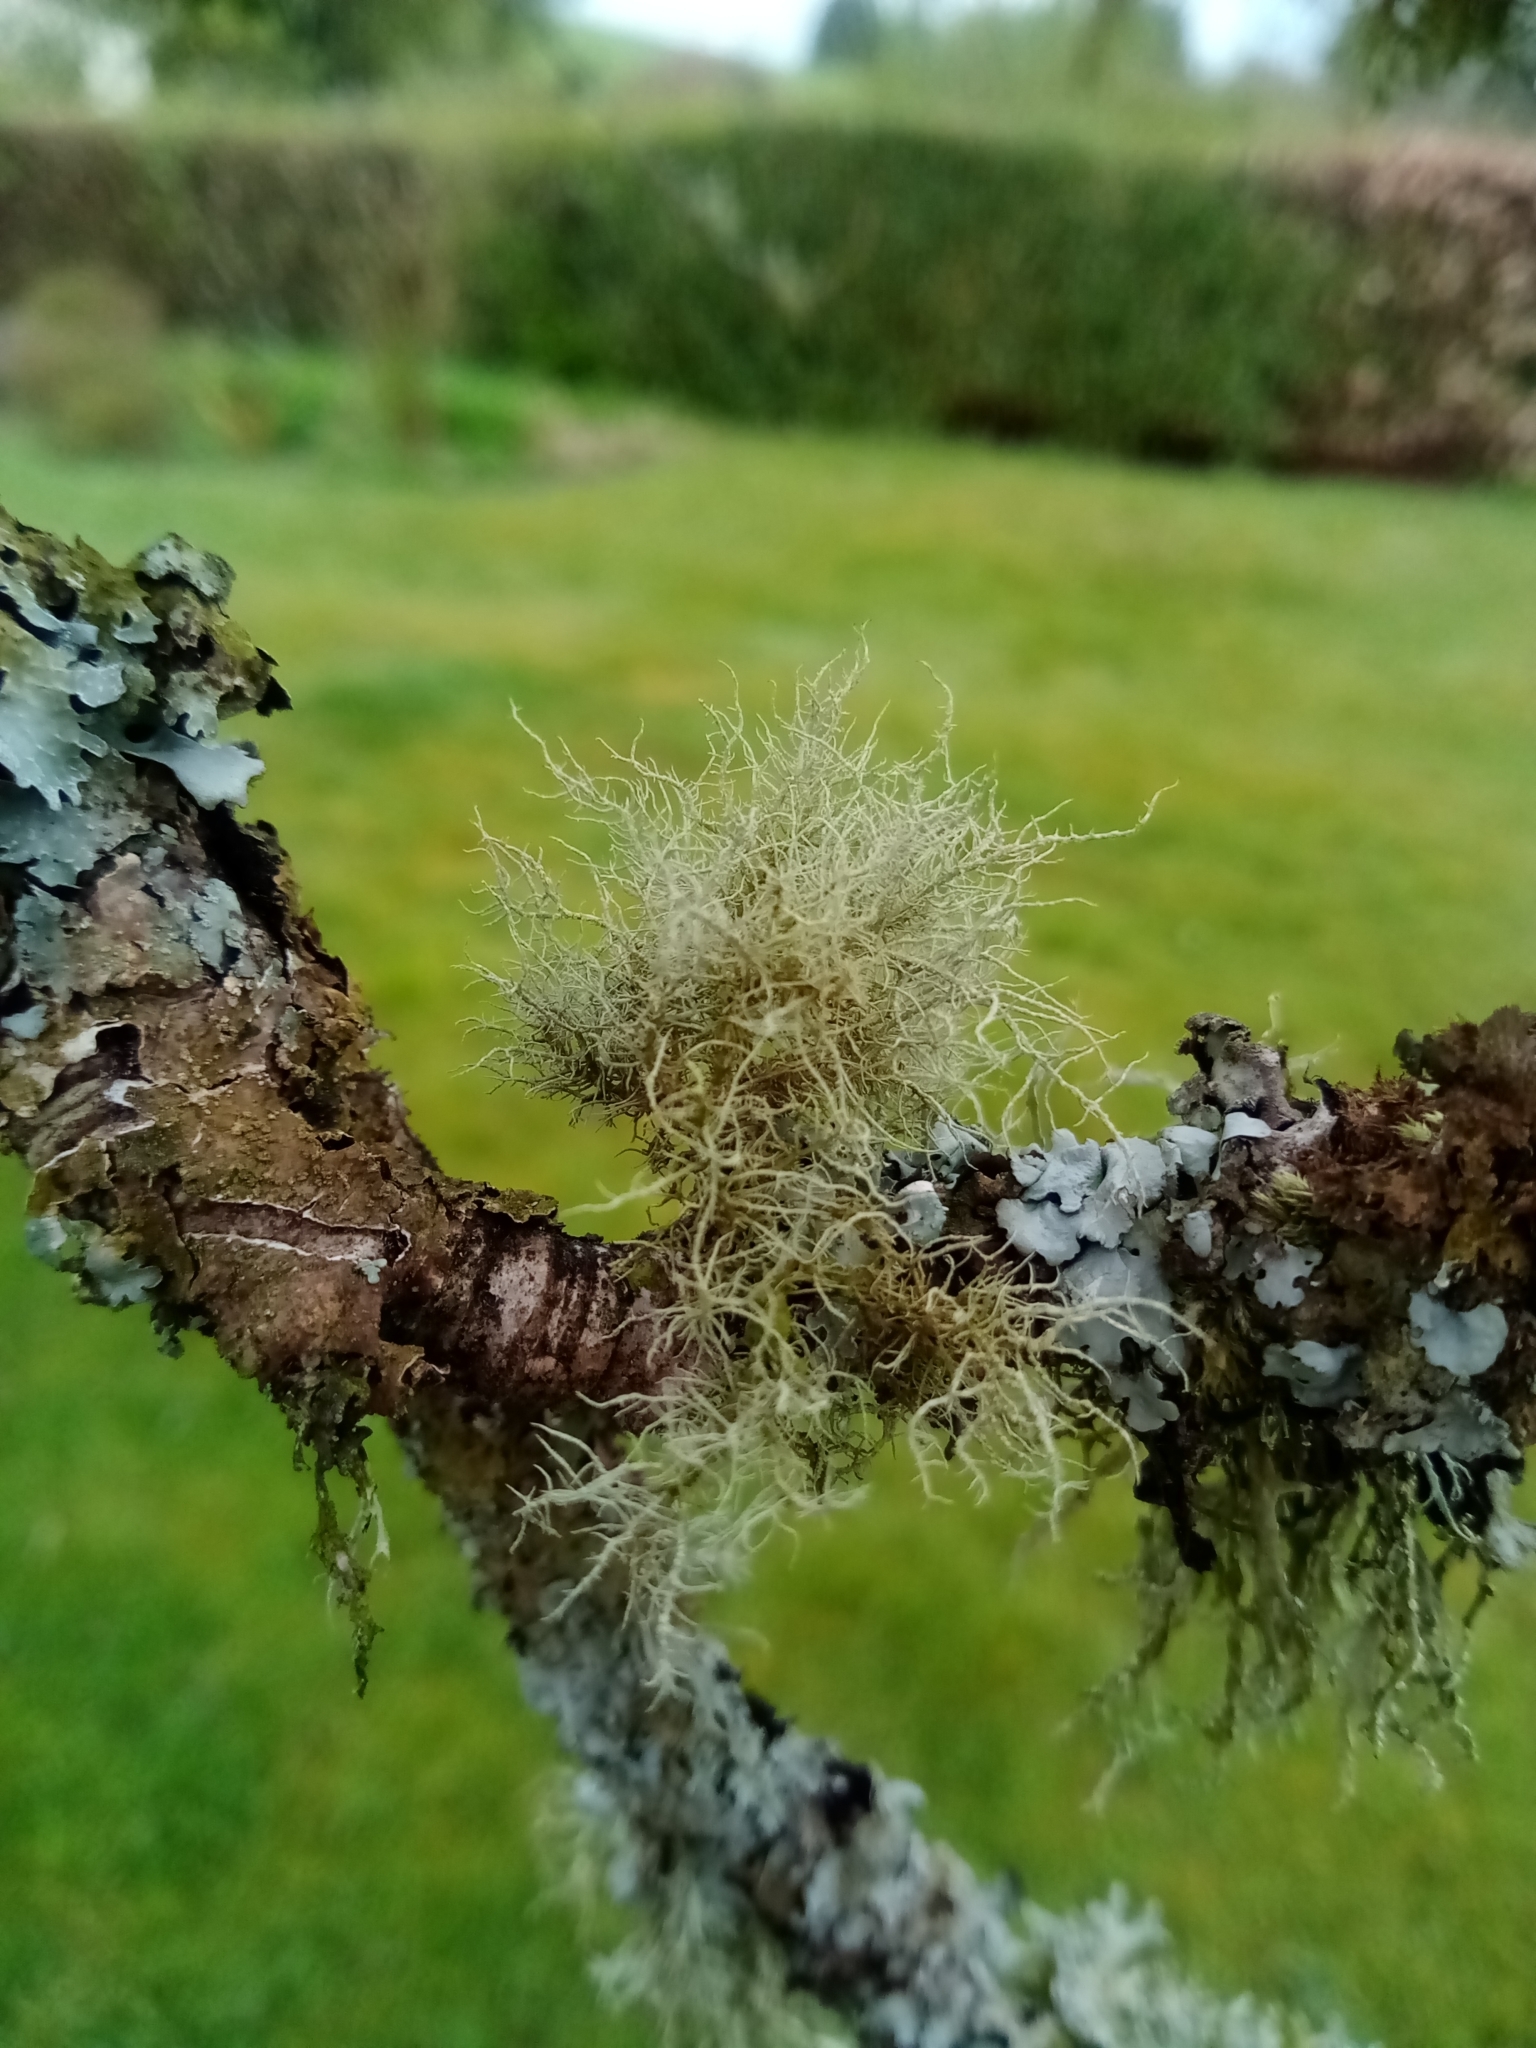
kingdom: Fungi
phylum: Ascomycota
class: Lecanoromycetes
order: Lecanorales
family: Parmeliaceae
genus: Usnea
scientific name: Usnea
